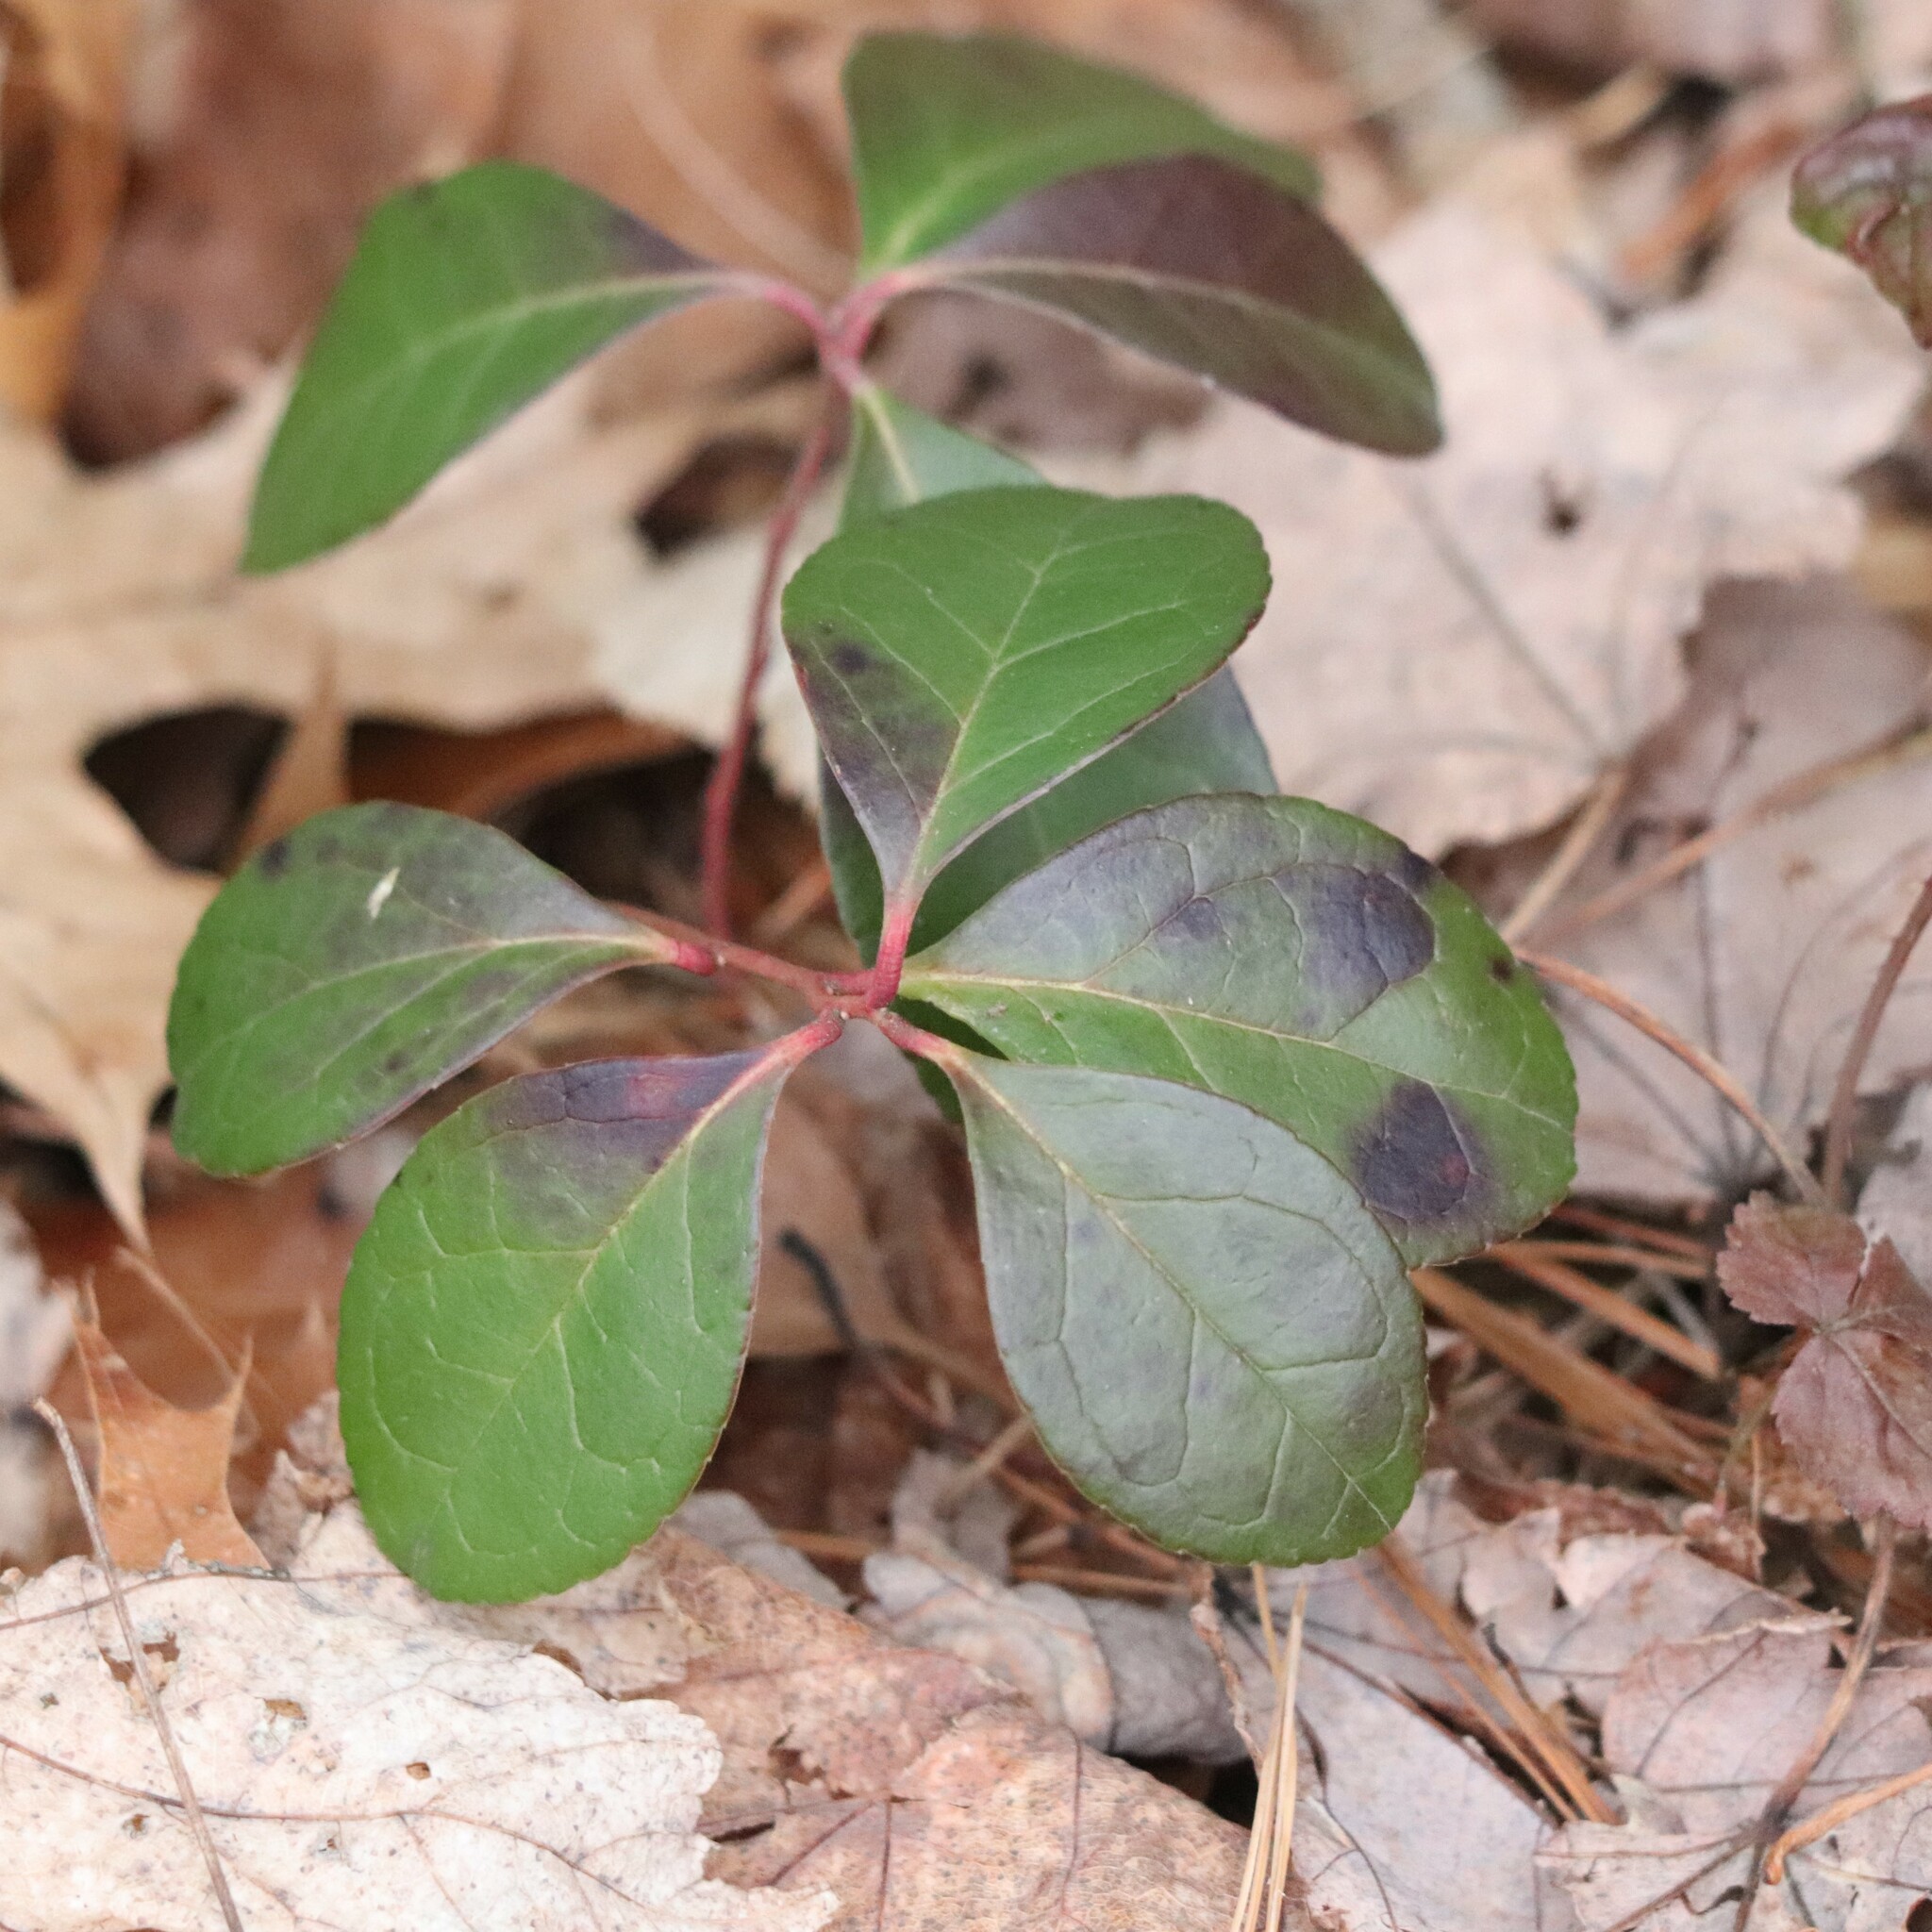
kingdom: Plantae
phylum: Tracheophyta
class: Magnoliopsida
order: Ericales
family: Ericaceae
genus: Gaultheria
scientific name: Gaultheria procumbens
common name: Checkerberry
